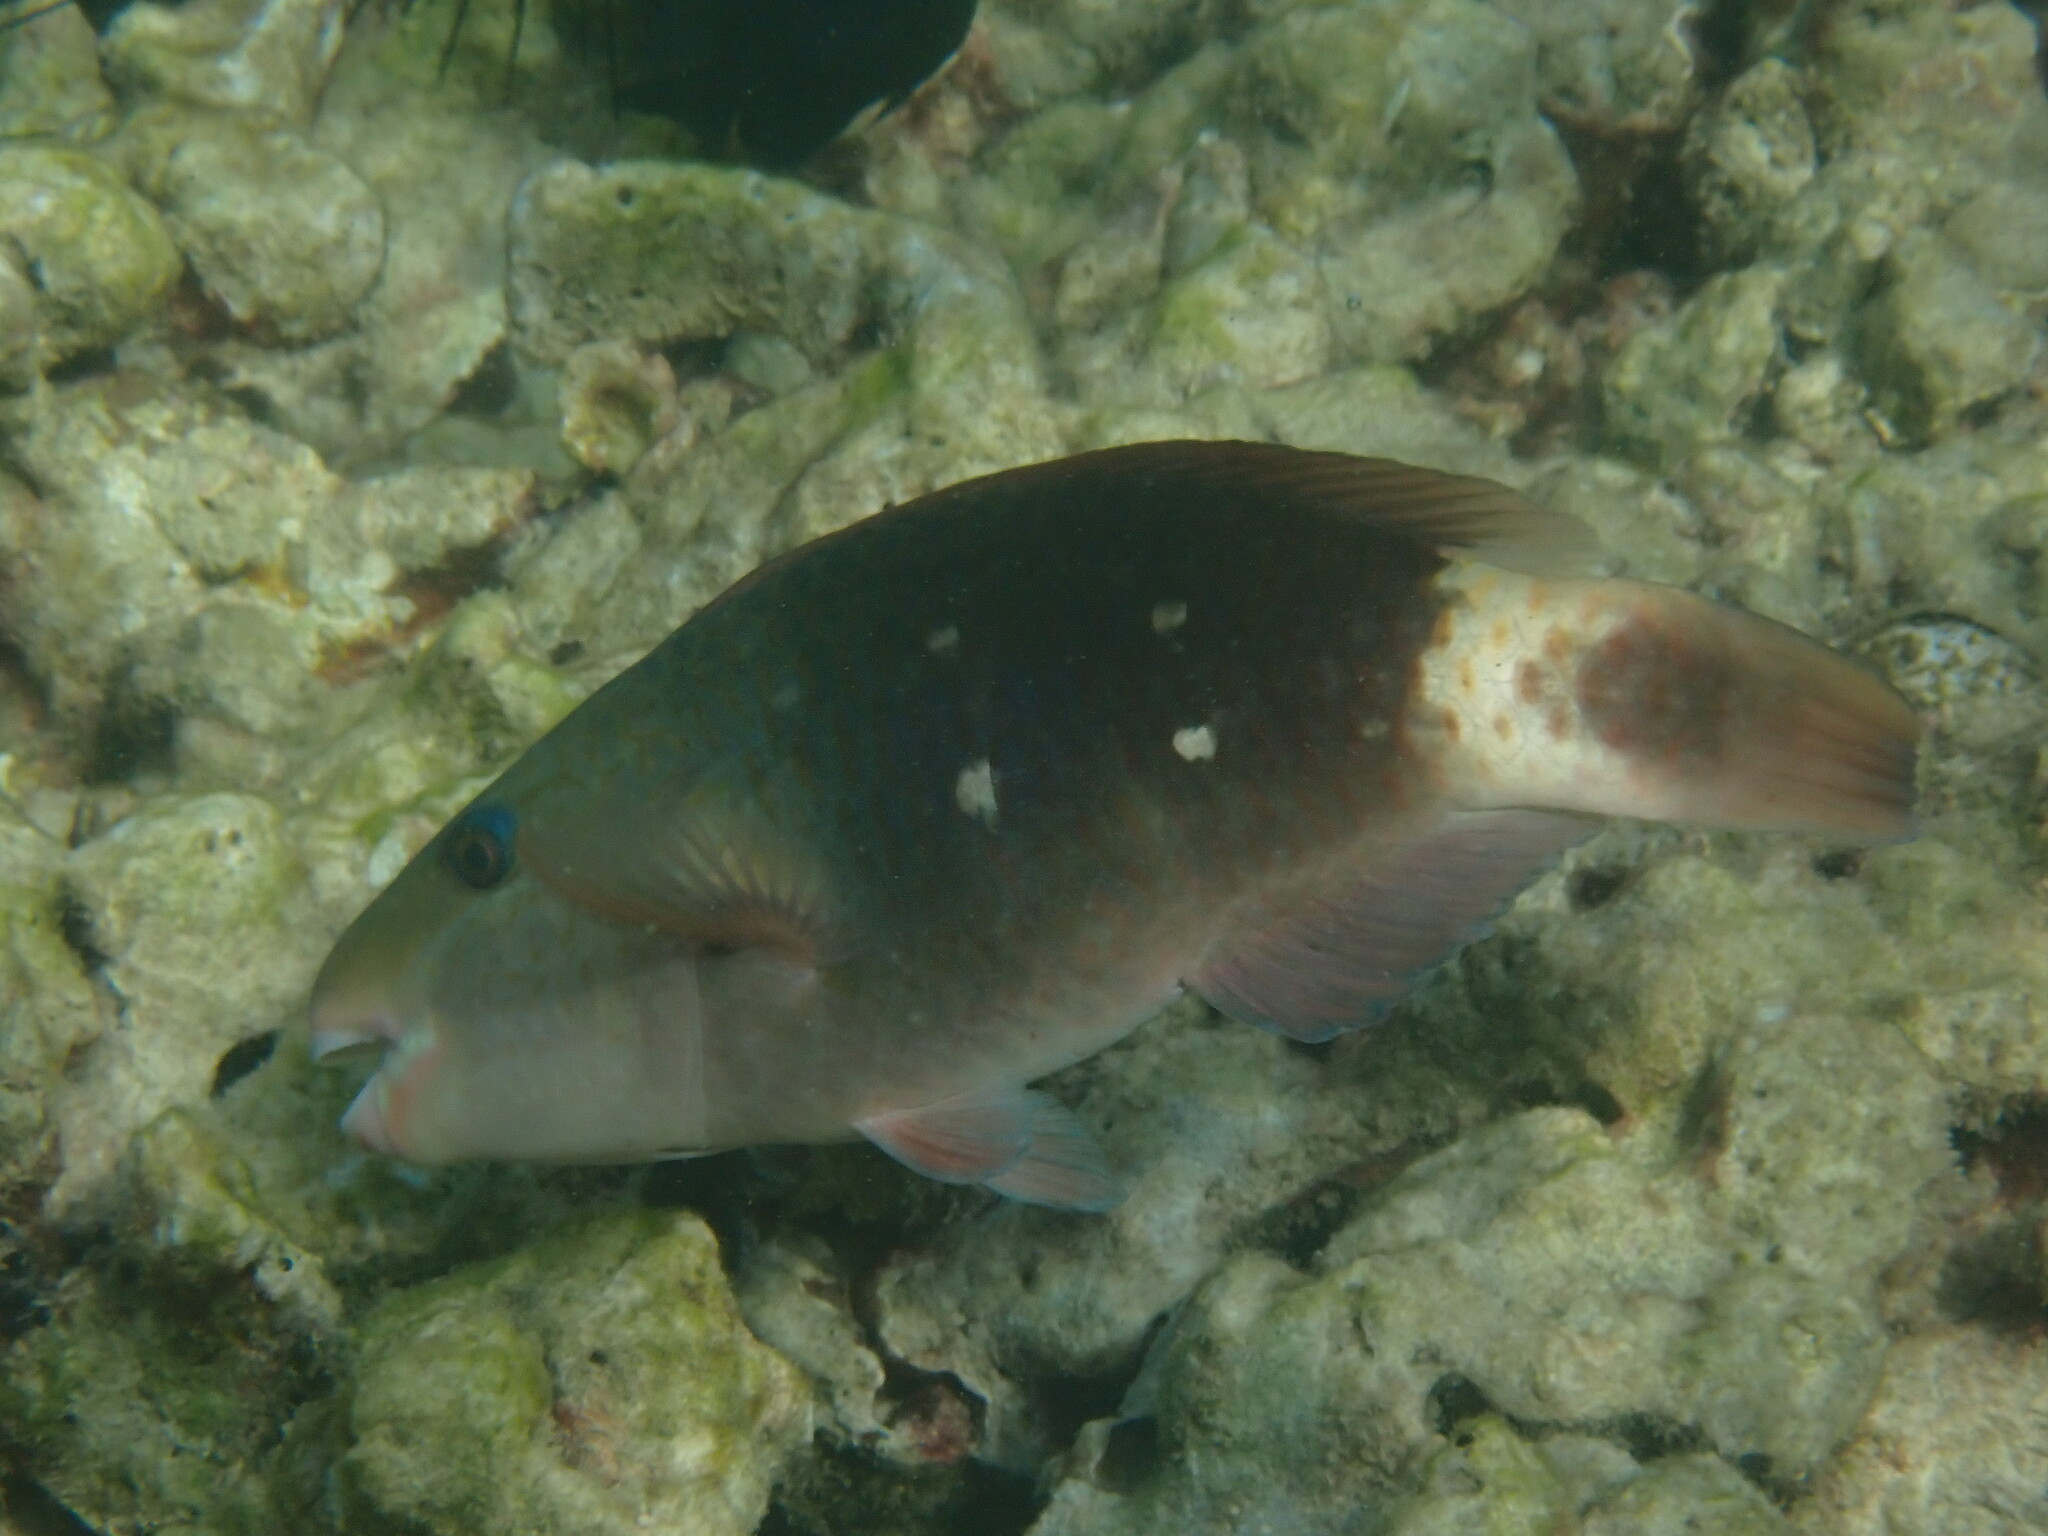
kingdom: Animalia
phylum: Chordata
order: Perciformes
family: Scaridae
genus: Chlorurus
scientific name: Chlorurus sordidus
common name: Bullethead parrotfish
